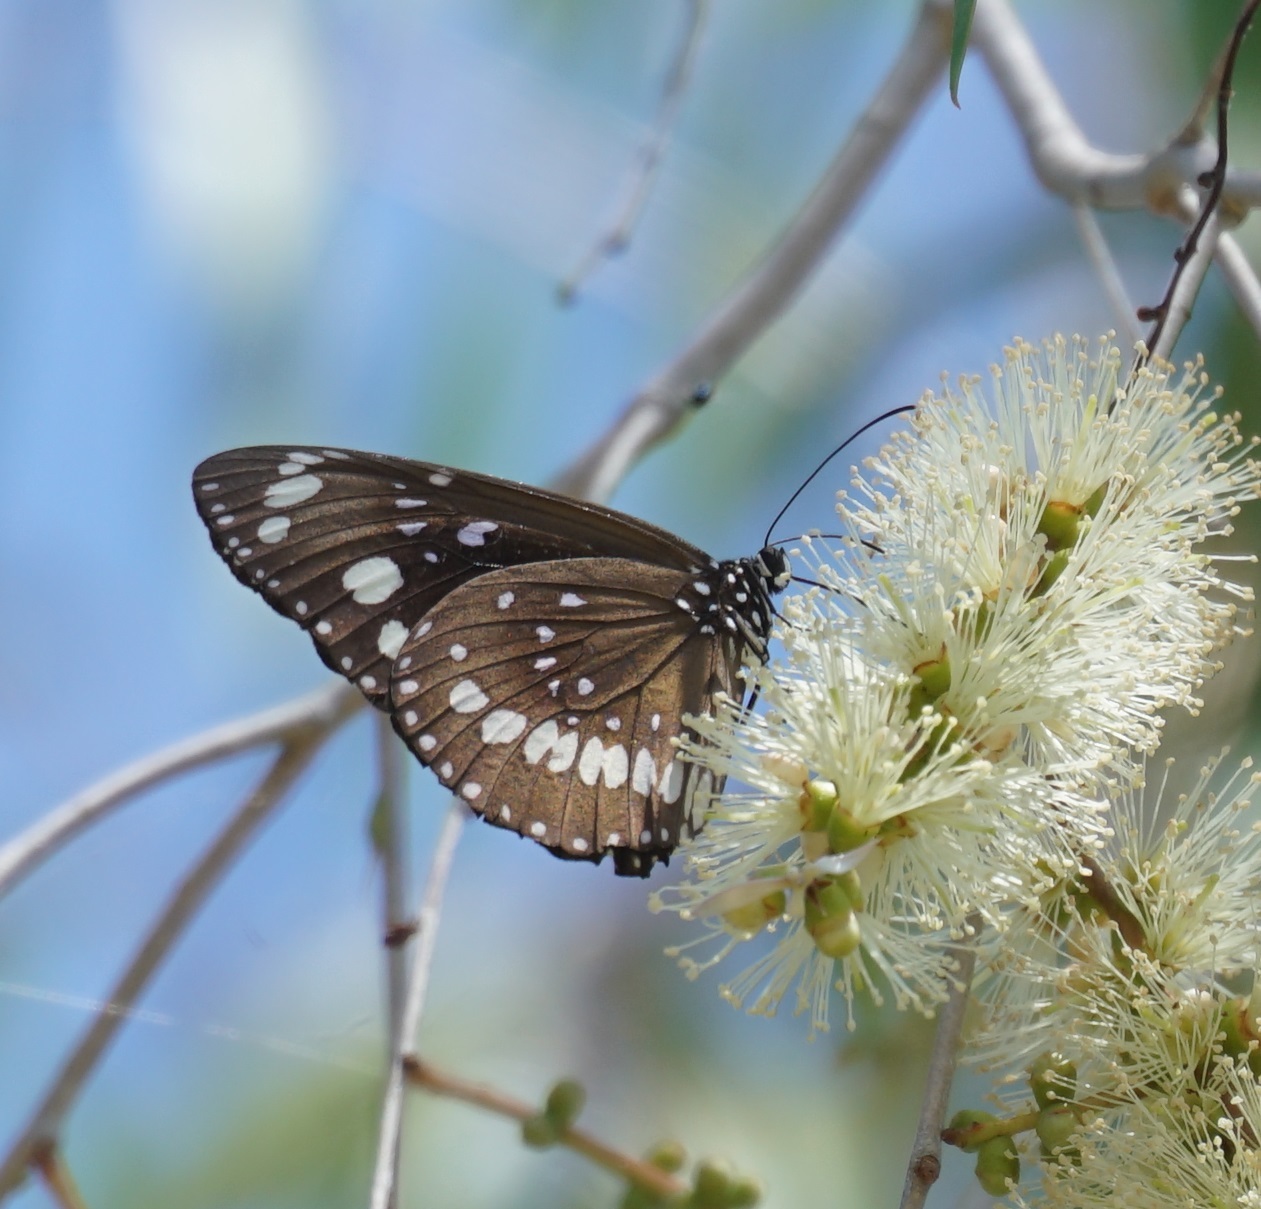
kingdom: Animalia
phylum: Arthropoda
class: Insecta
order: Lepidoptera
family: Nymphalidae
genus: Euploea
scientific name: Euploea core
